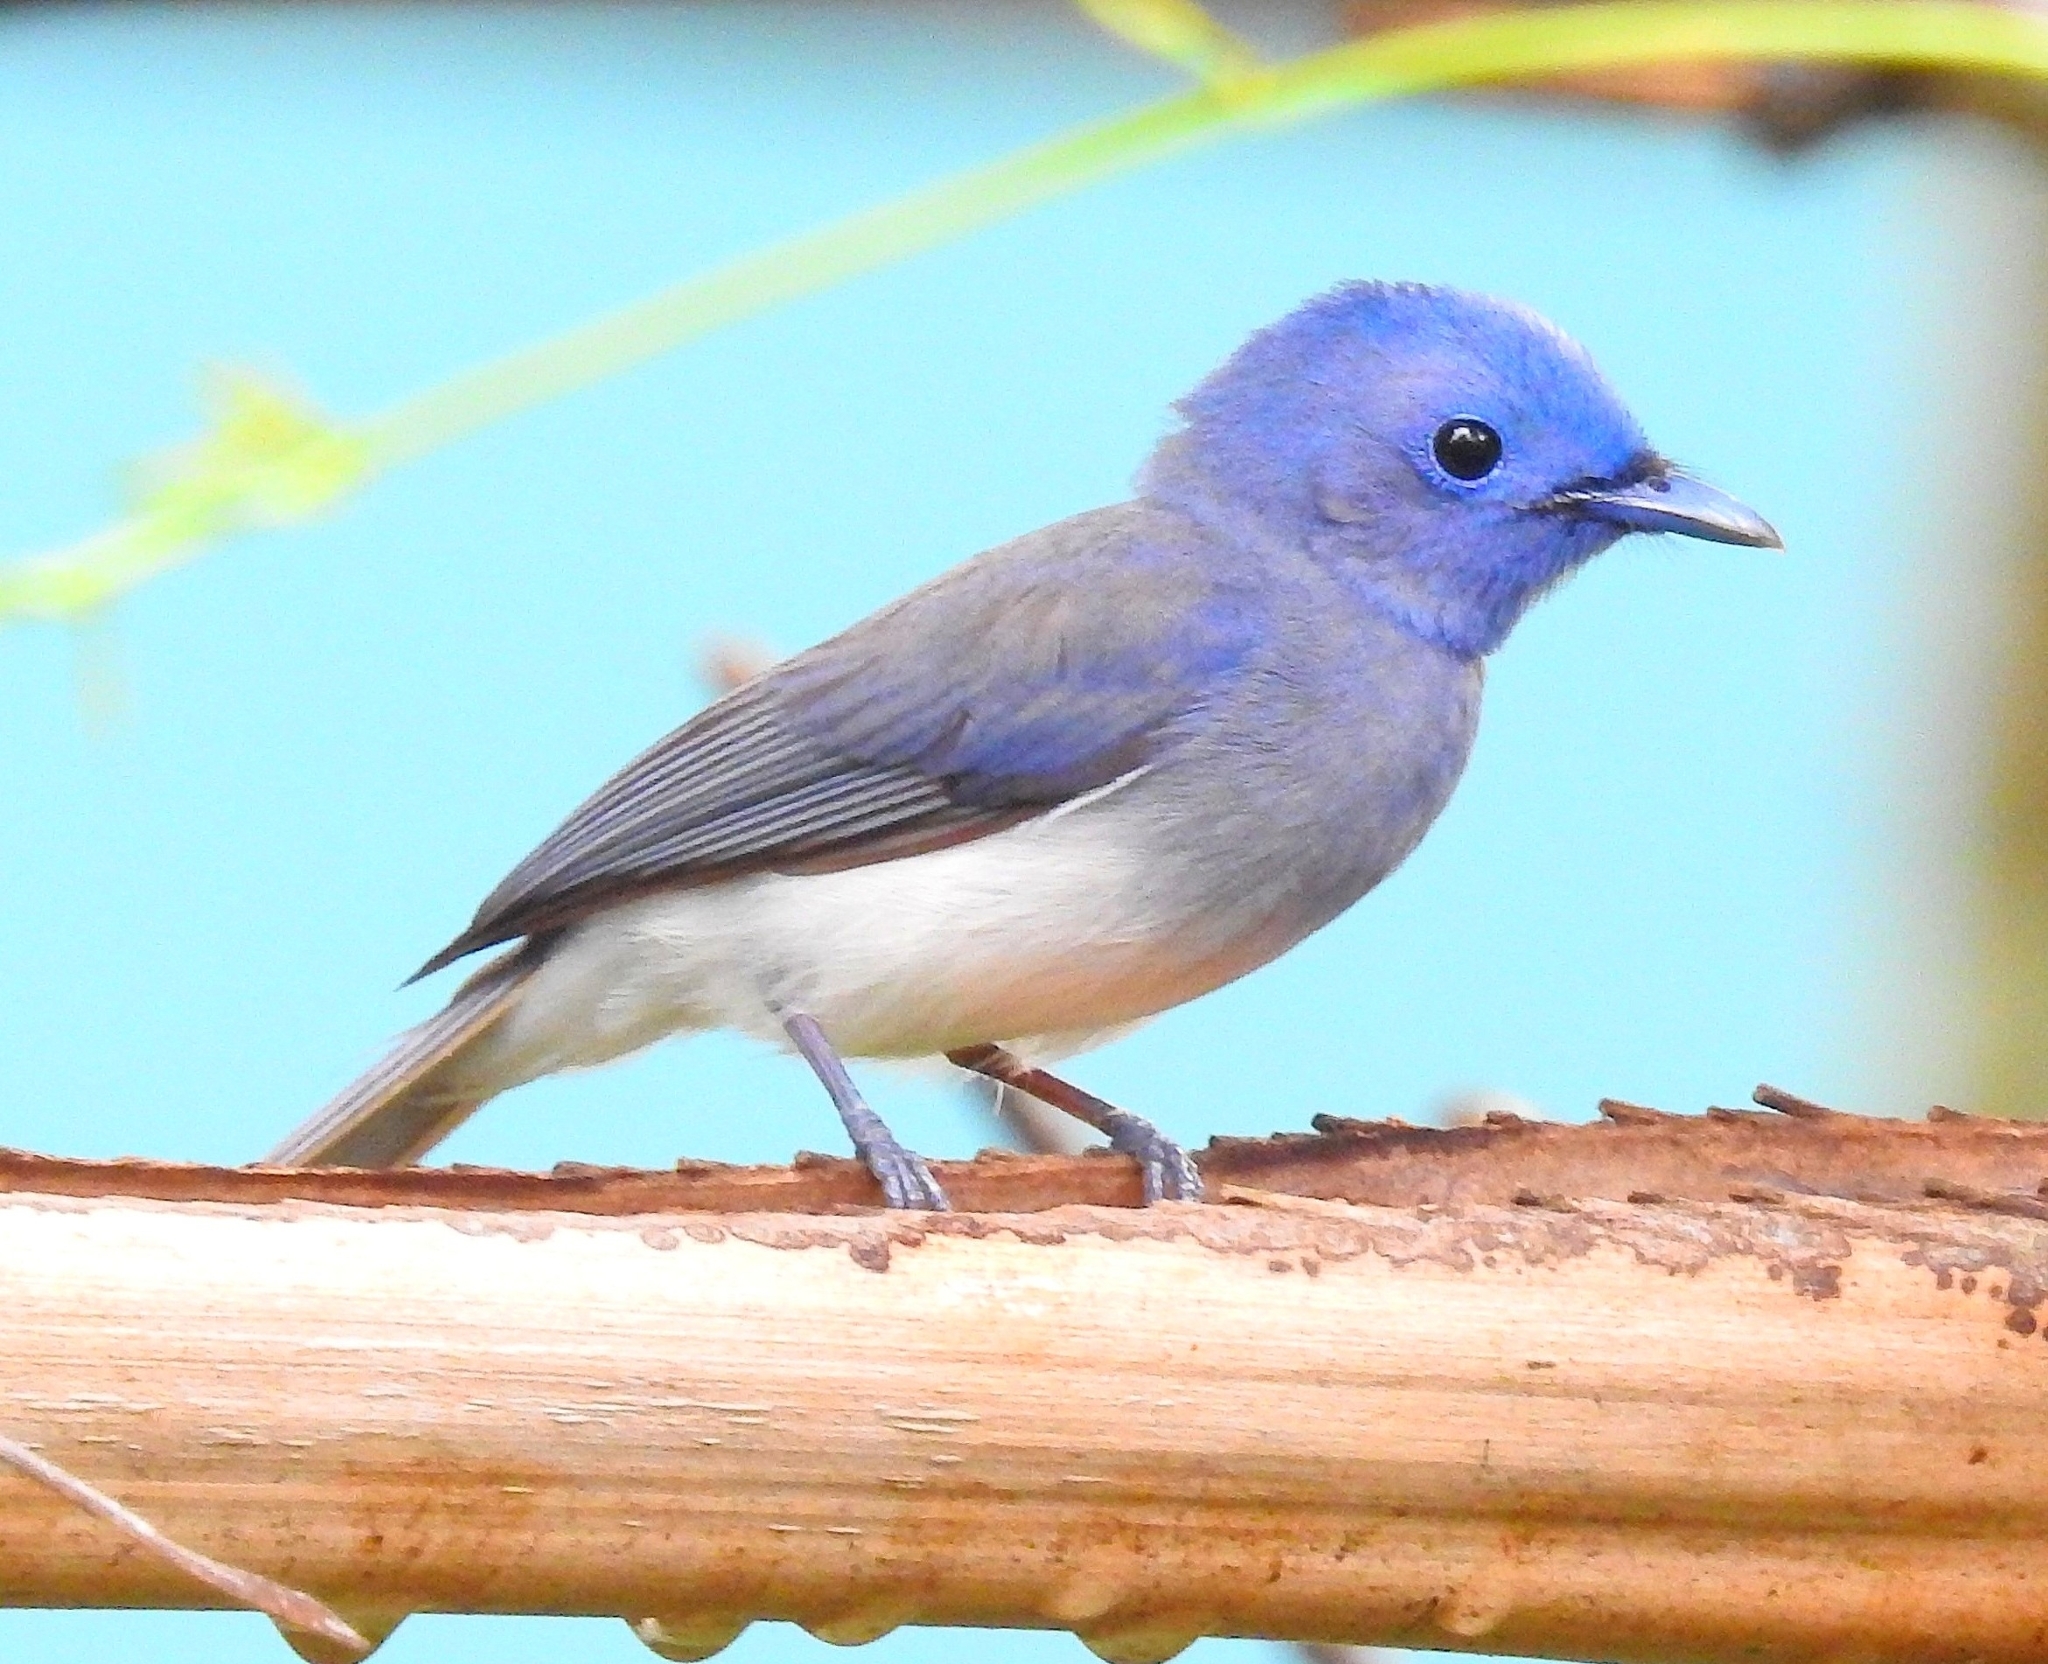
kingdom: Animalia
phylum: Chordata
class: Aves
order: Passeriformes
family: Monarchidae
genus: Hypothymis
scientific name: Hypothymis azurea
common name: Black-naped monarch
